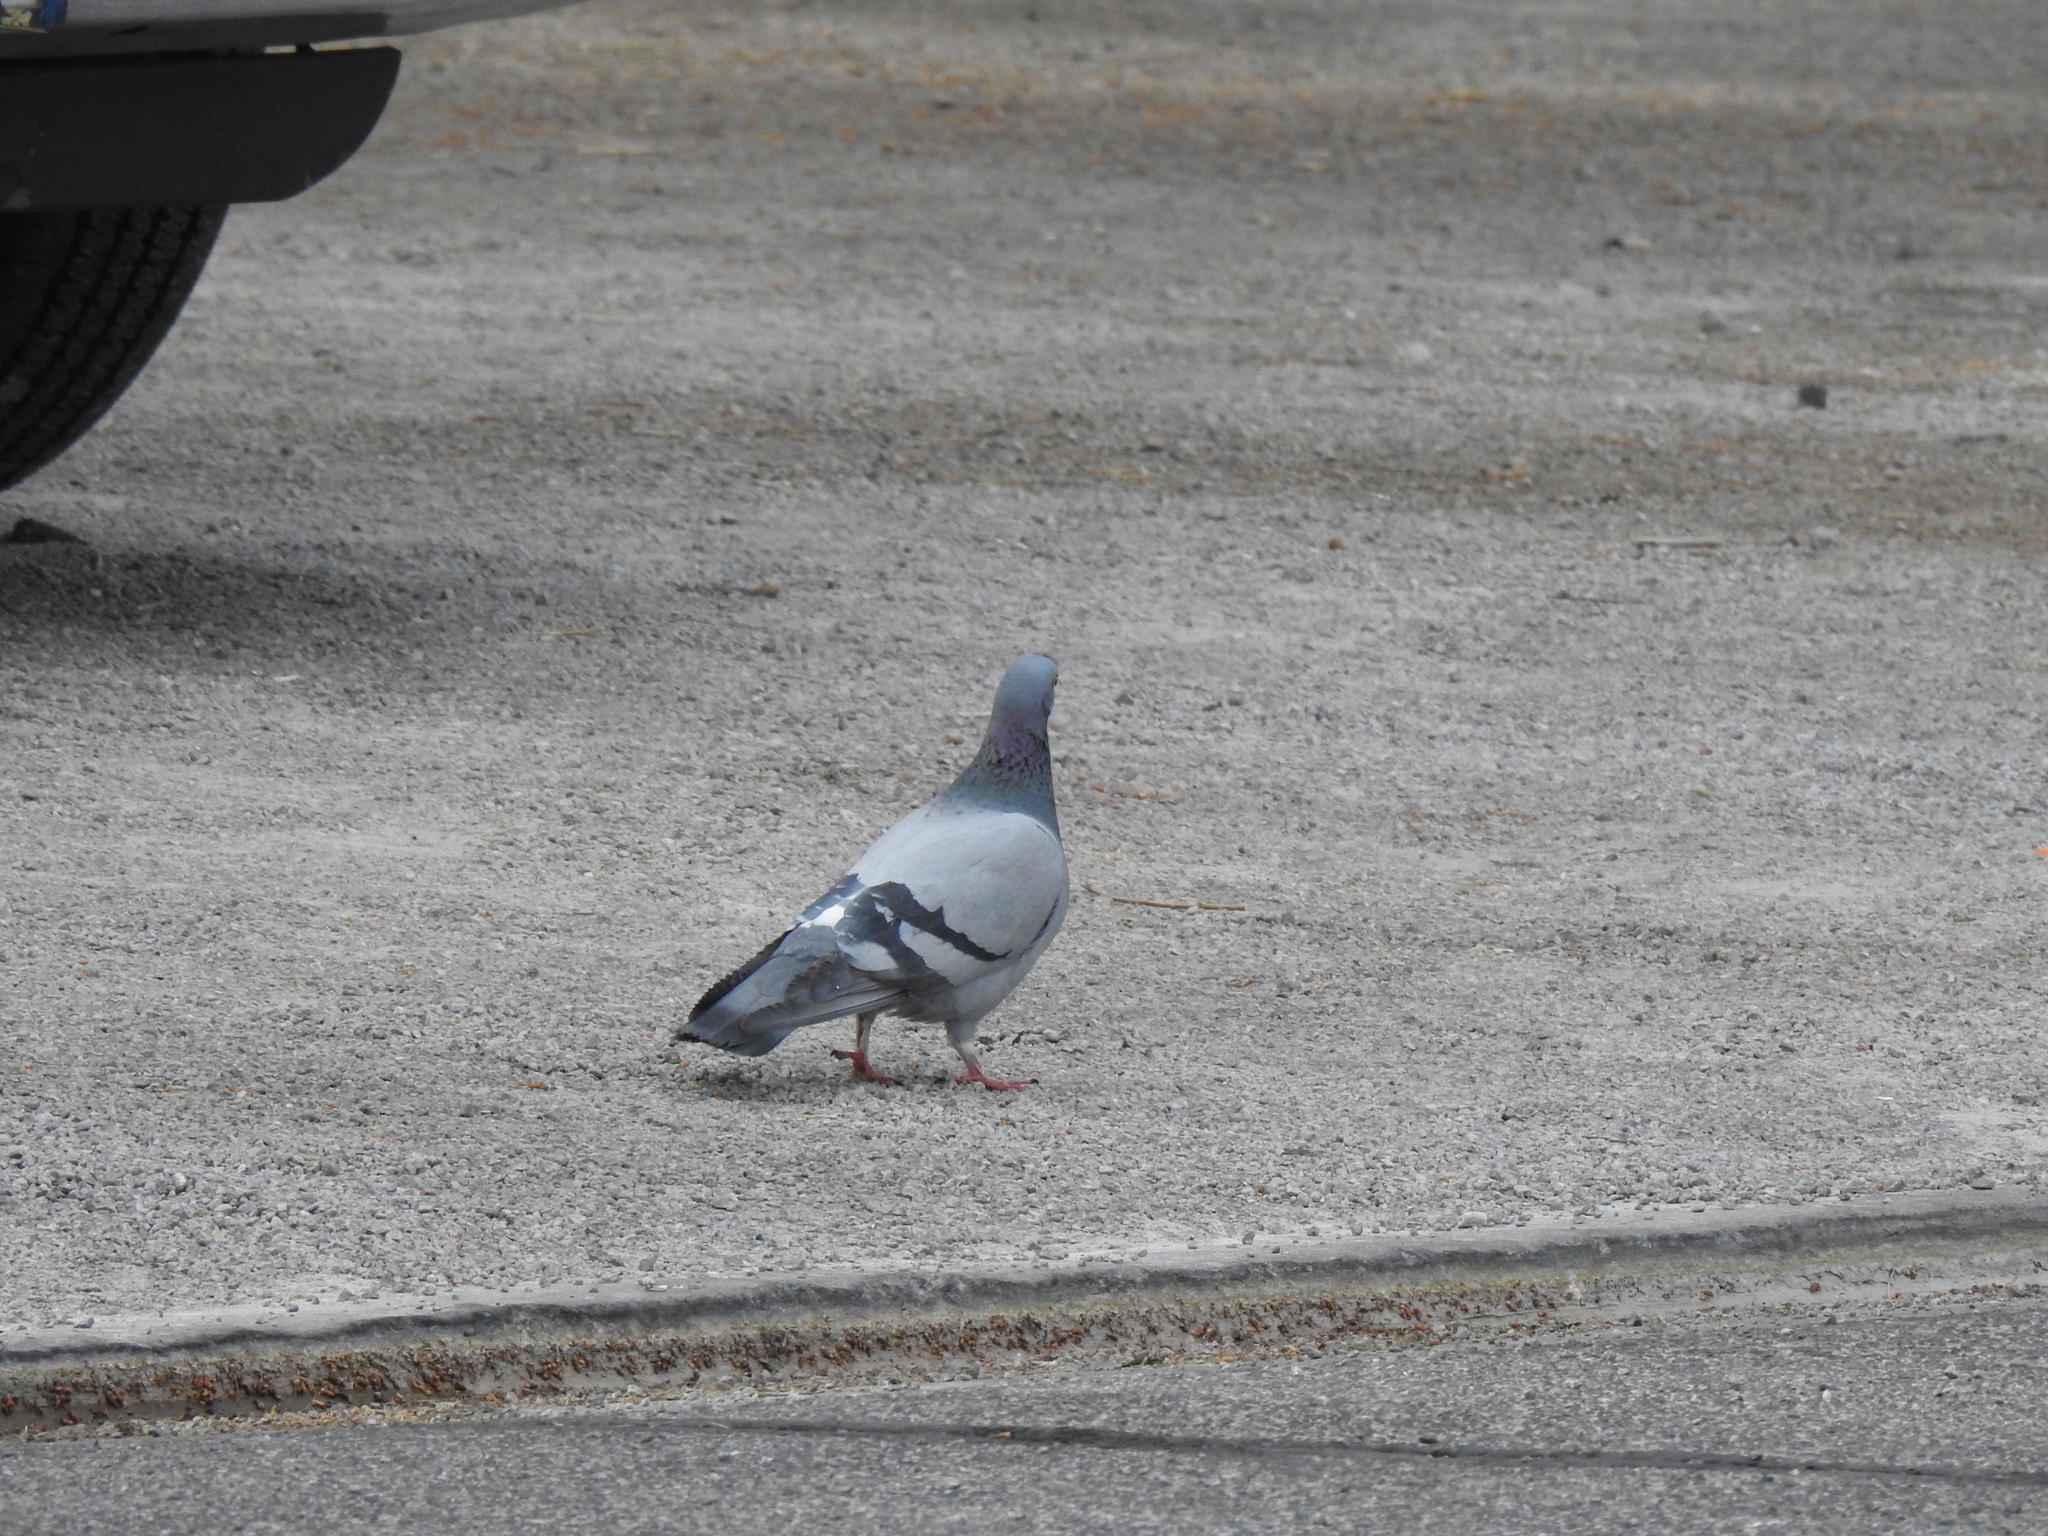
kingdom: Animalia
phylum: Chordata
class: Aves
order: Columbiformes
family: Columbidae
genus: Columba
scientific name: Columba livia
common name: Rock pigeon
